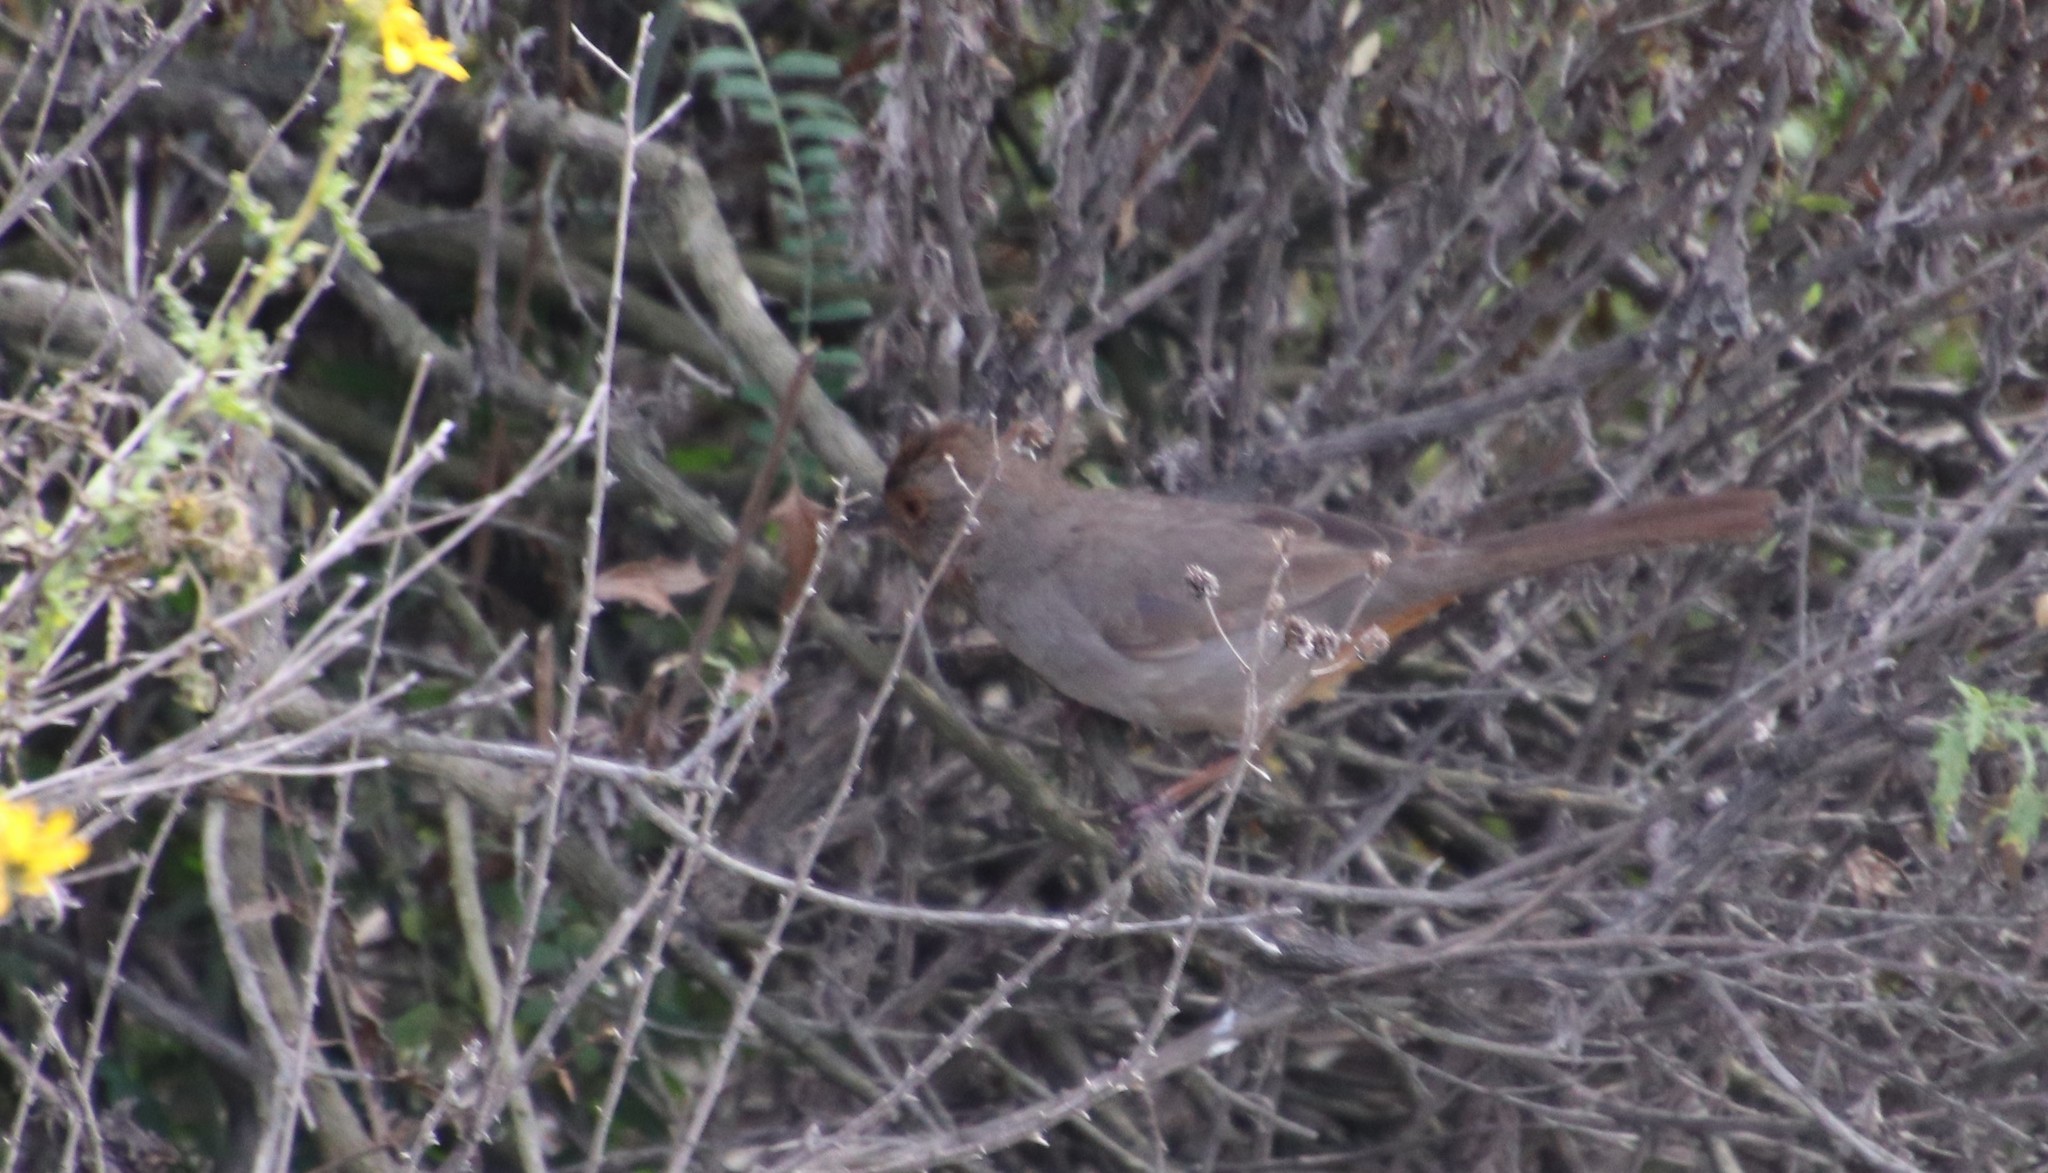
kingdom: Animalia
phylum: Chordata
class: Aves
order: Passeriformes
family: Passerellidae
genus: Melozone
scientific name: Melozone crissalis
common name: California towhee
